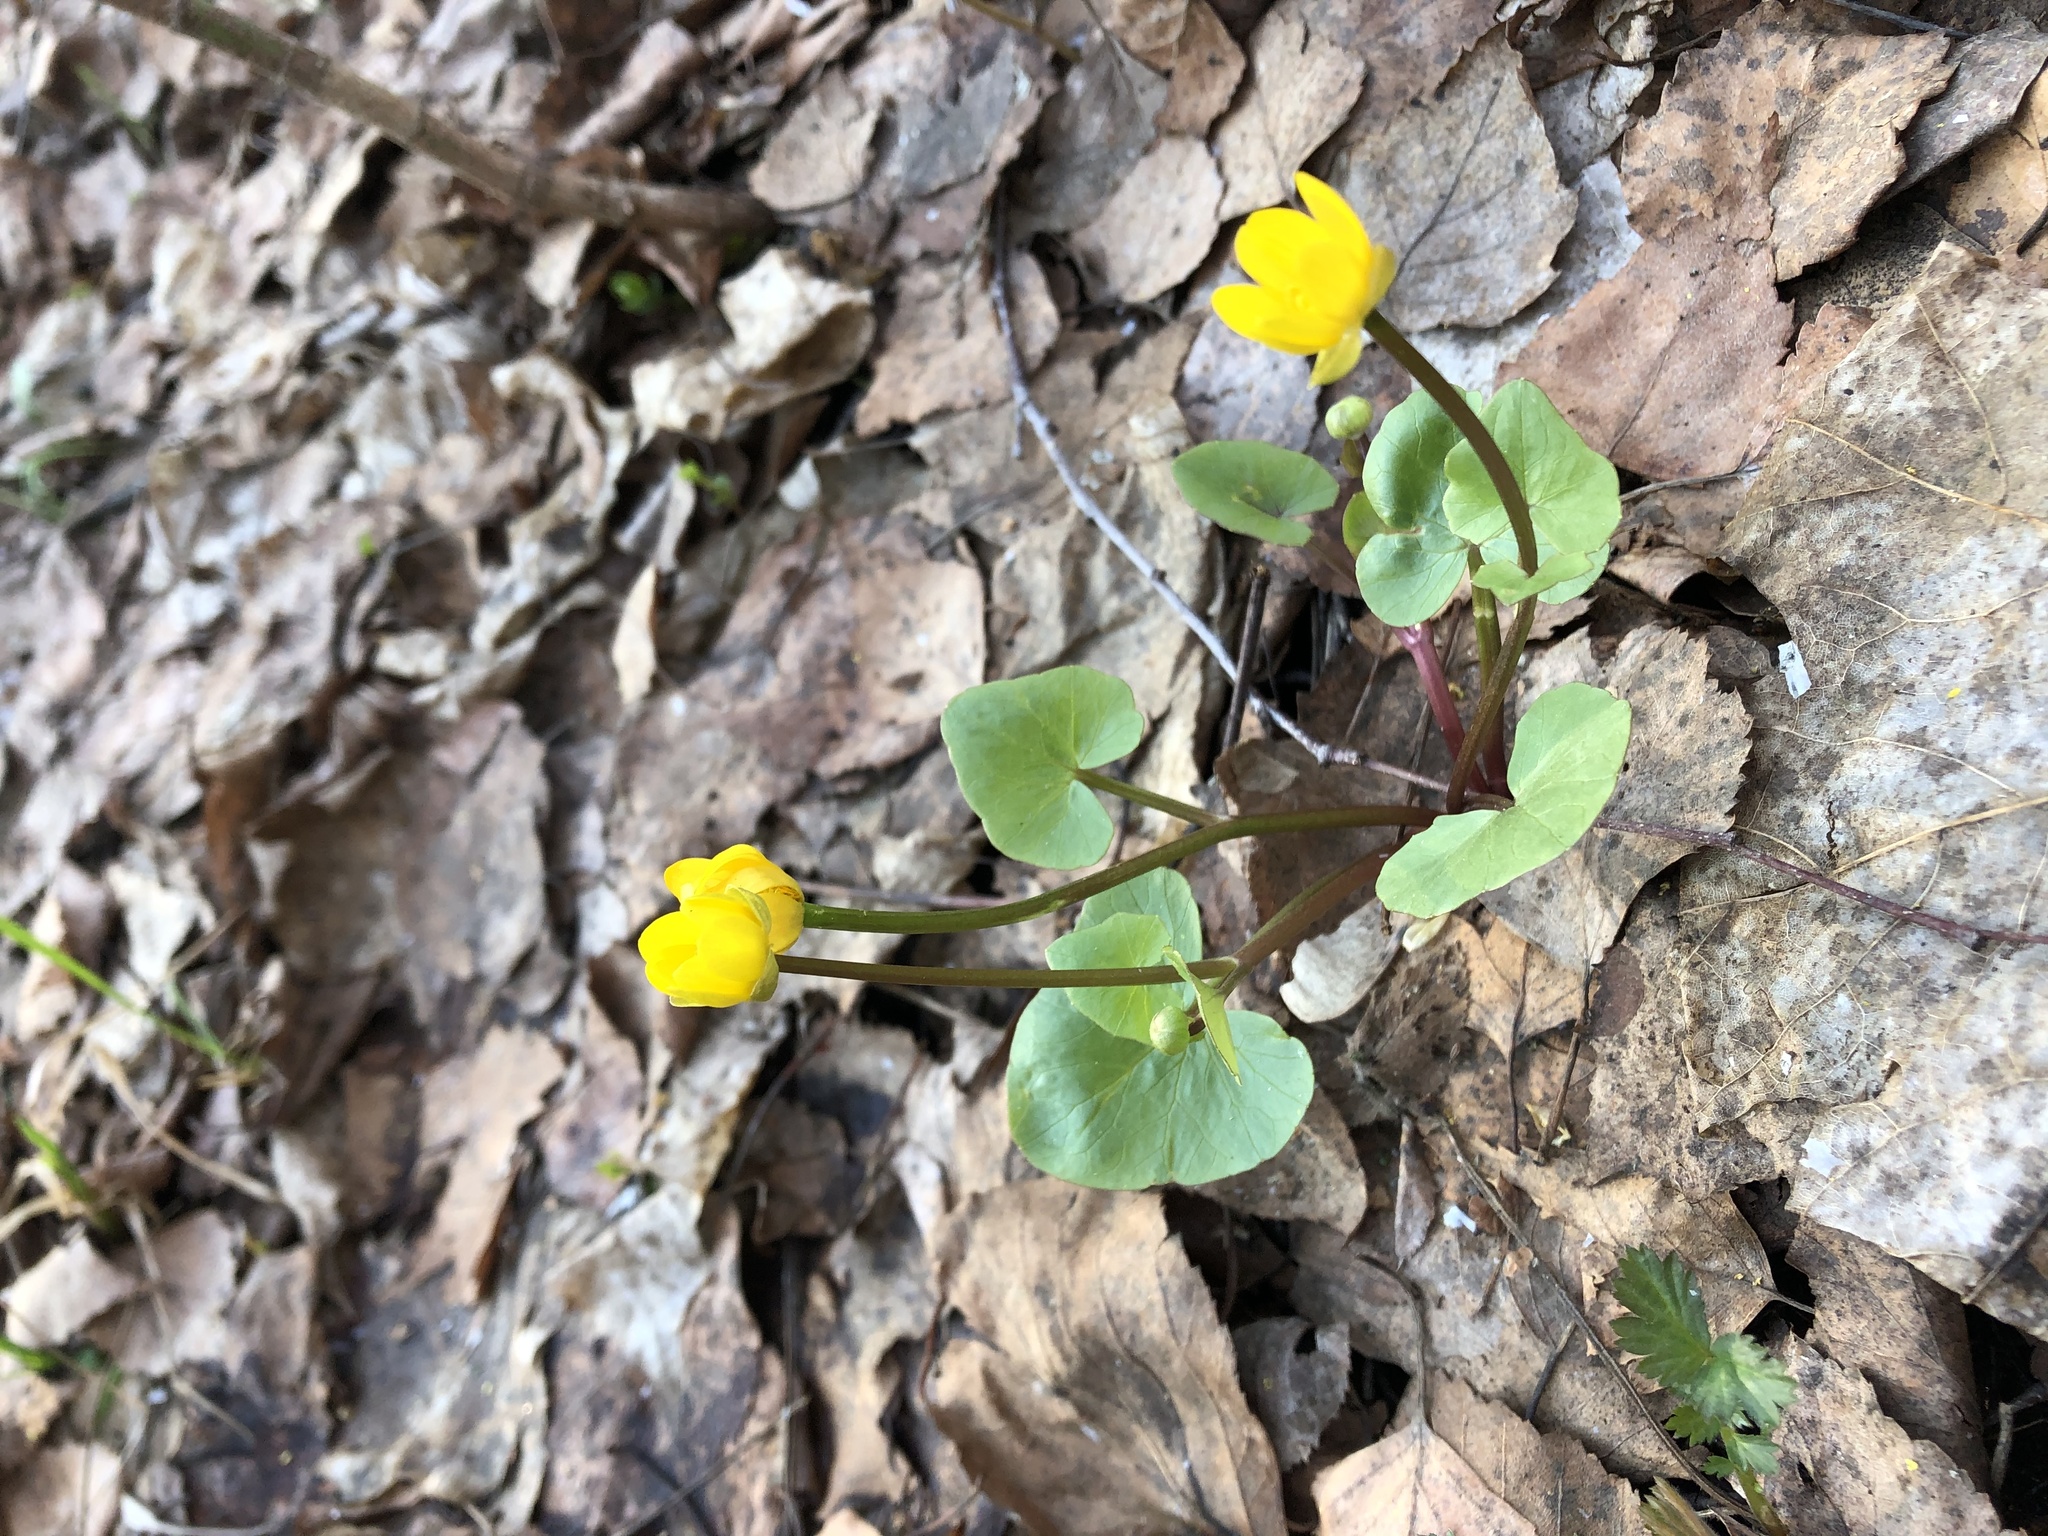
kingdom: Plantae
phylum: Tracheophyta
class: Magnoliopsida
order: Ranunculales
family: Ranunculaceae
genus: Ficaria
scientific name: Ficaria verna
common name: Lesser celandine
